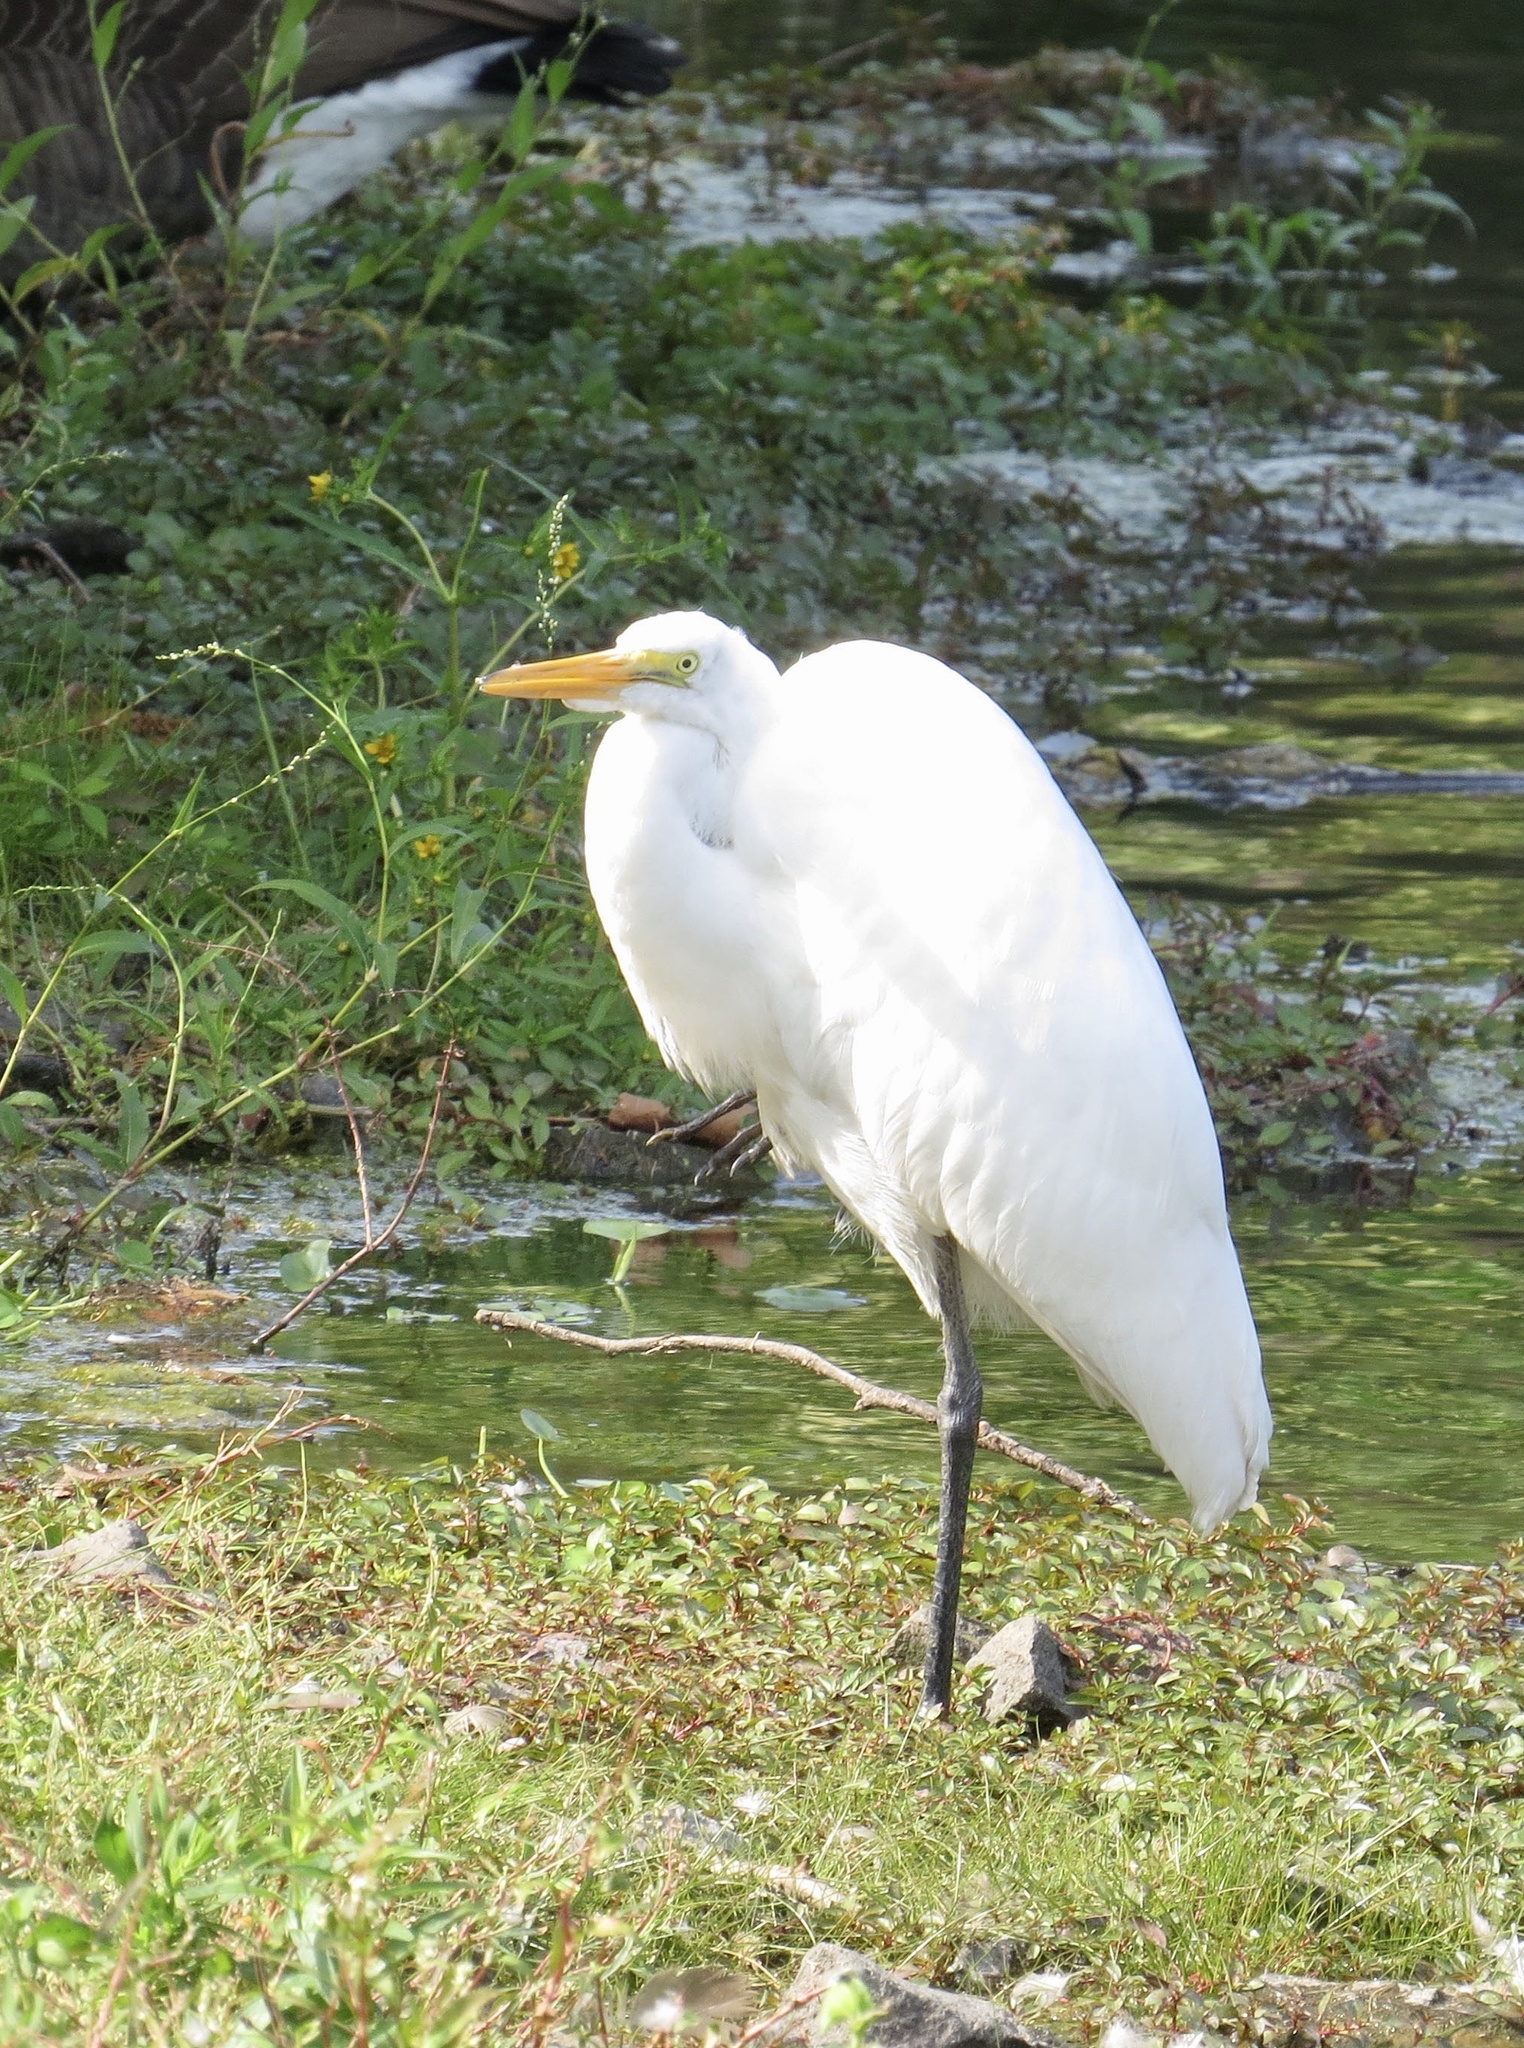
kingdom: Animalia
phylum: Chordata
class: Aves
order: Pelecaniformes
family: Ardeidae
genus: Ardea
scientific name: Ardea alba
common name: Great egret
